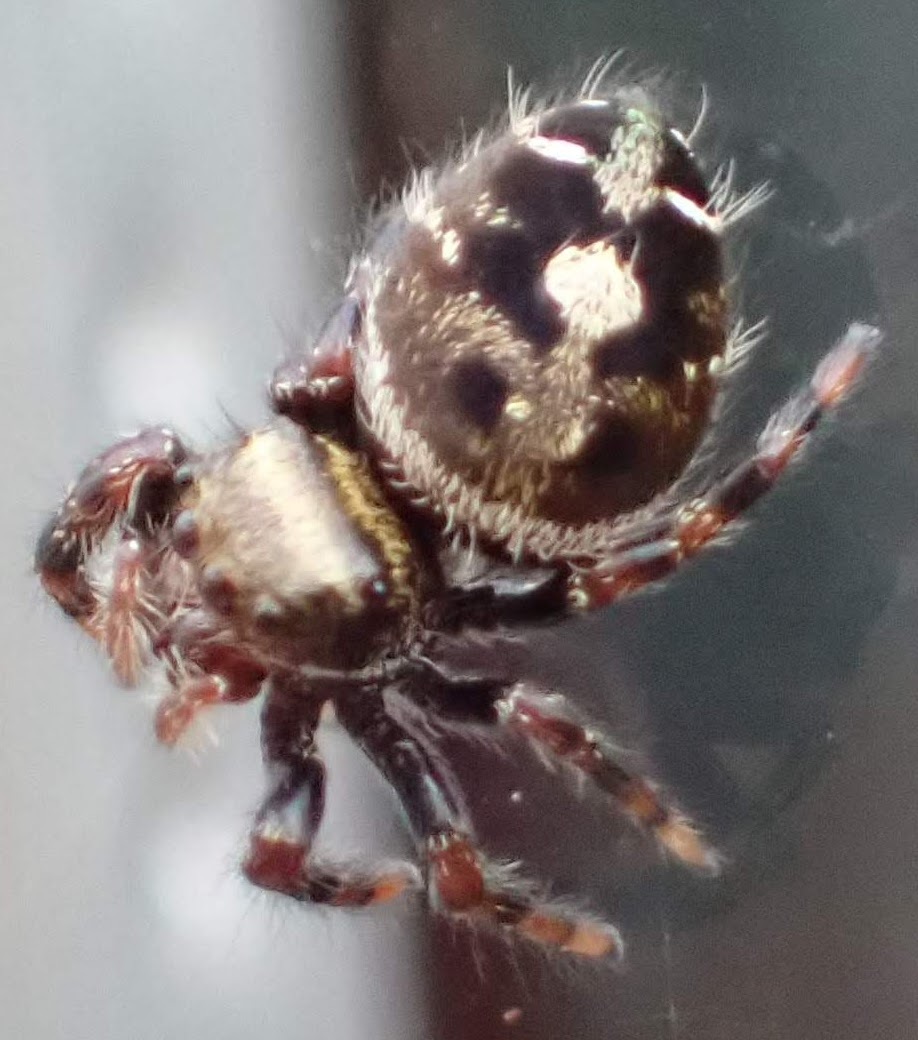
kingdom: Animalia
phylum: Arthropoda
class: Arachnida
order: Araneae
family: Salticidae
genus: Phidippus
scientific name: Phidippus audax
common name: Bold jumper
